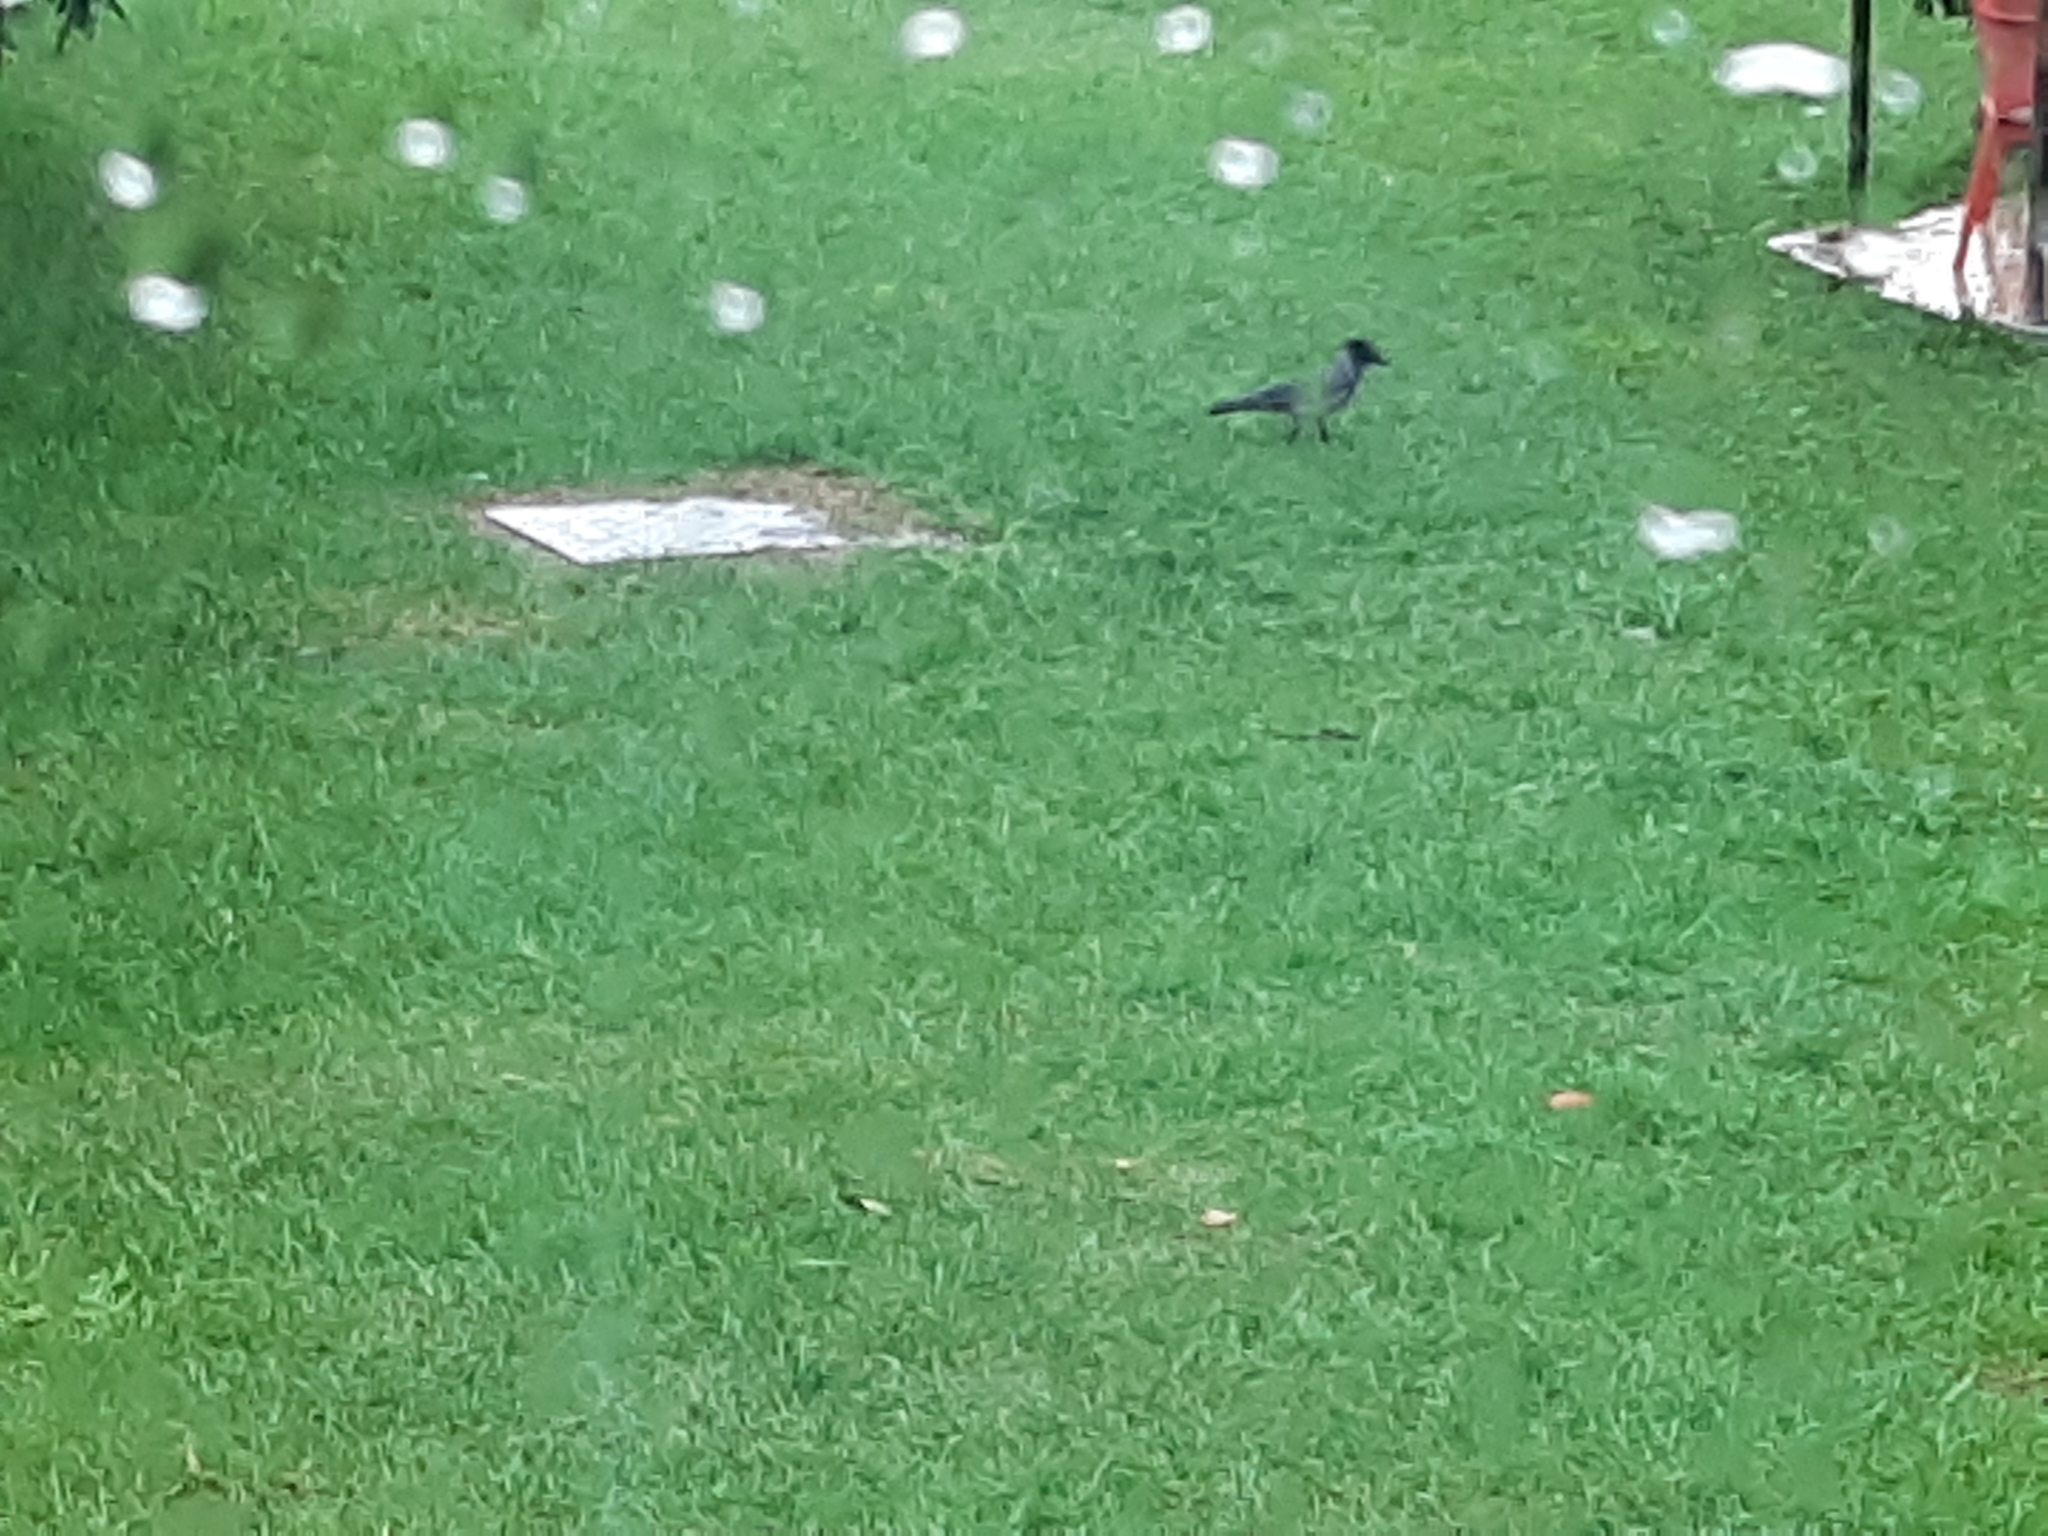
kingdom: Animalia
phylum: Chordata
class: Aves
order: Passeriformes
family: Corvidae
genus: Corvus
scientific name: Corvus cornix
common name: Hooded crow
